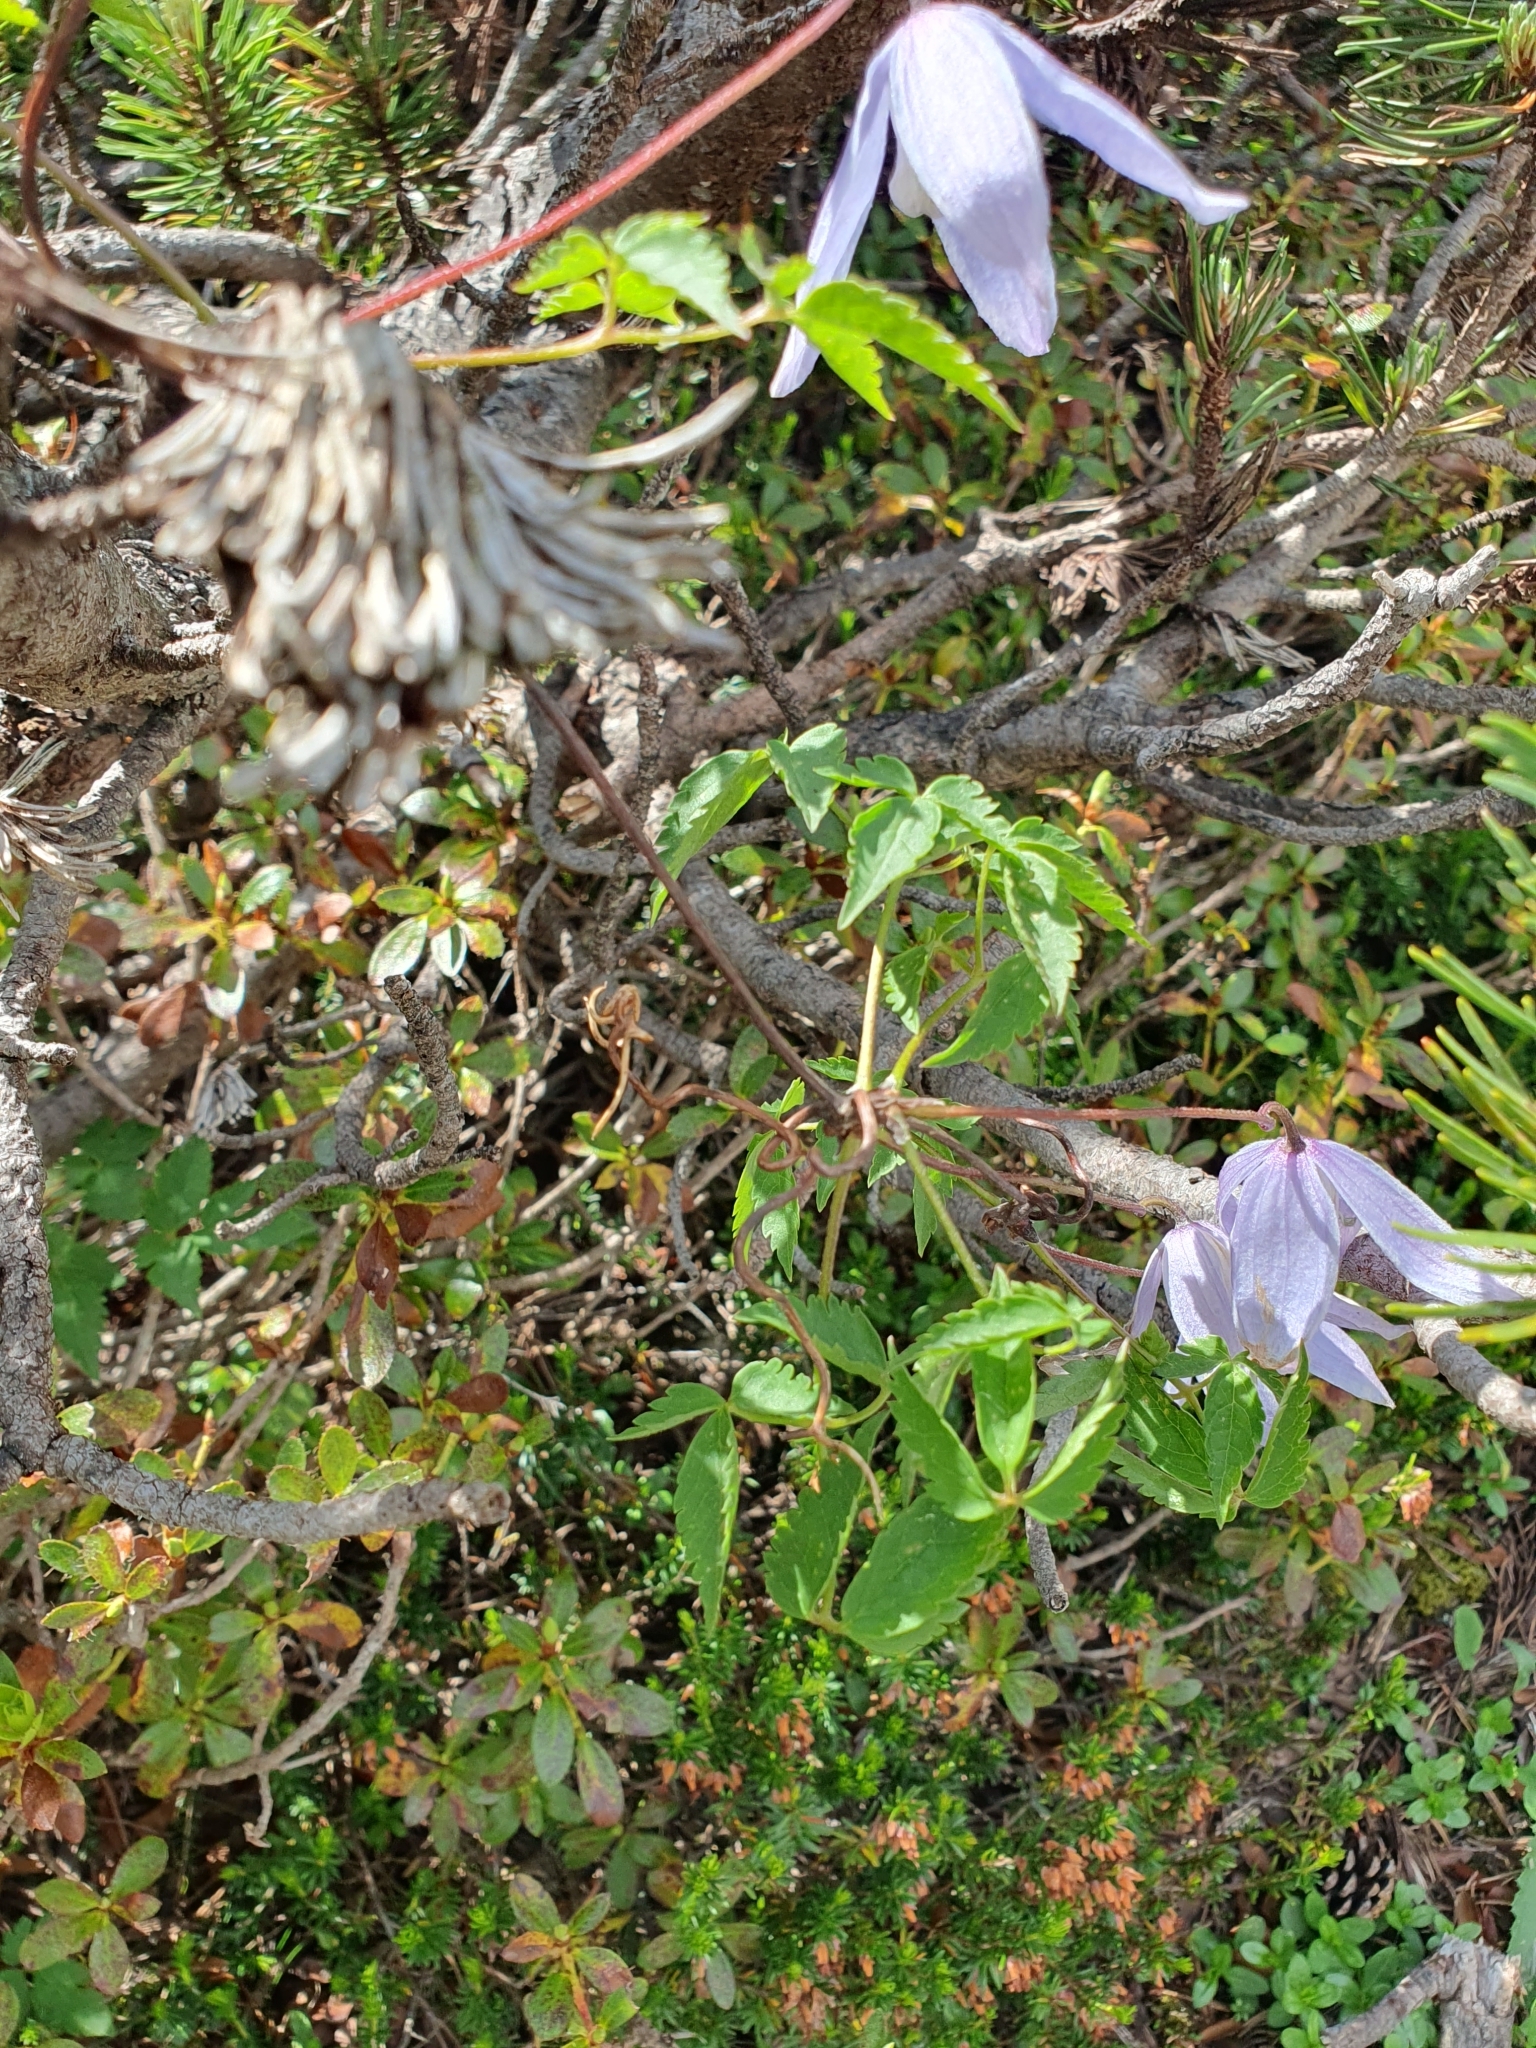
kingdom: Plantae
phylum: Tracheophyta
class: Magnoliopsida
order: Ranunculales
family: Ranunculaceae
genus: Clematis
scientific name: Clematis alpina
